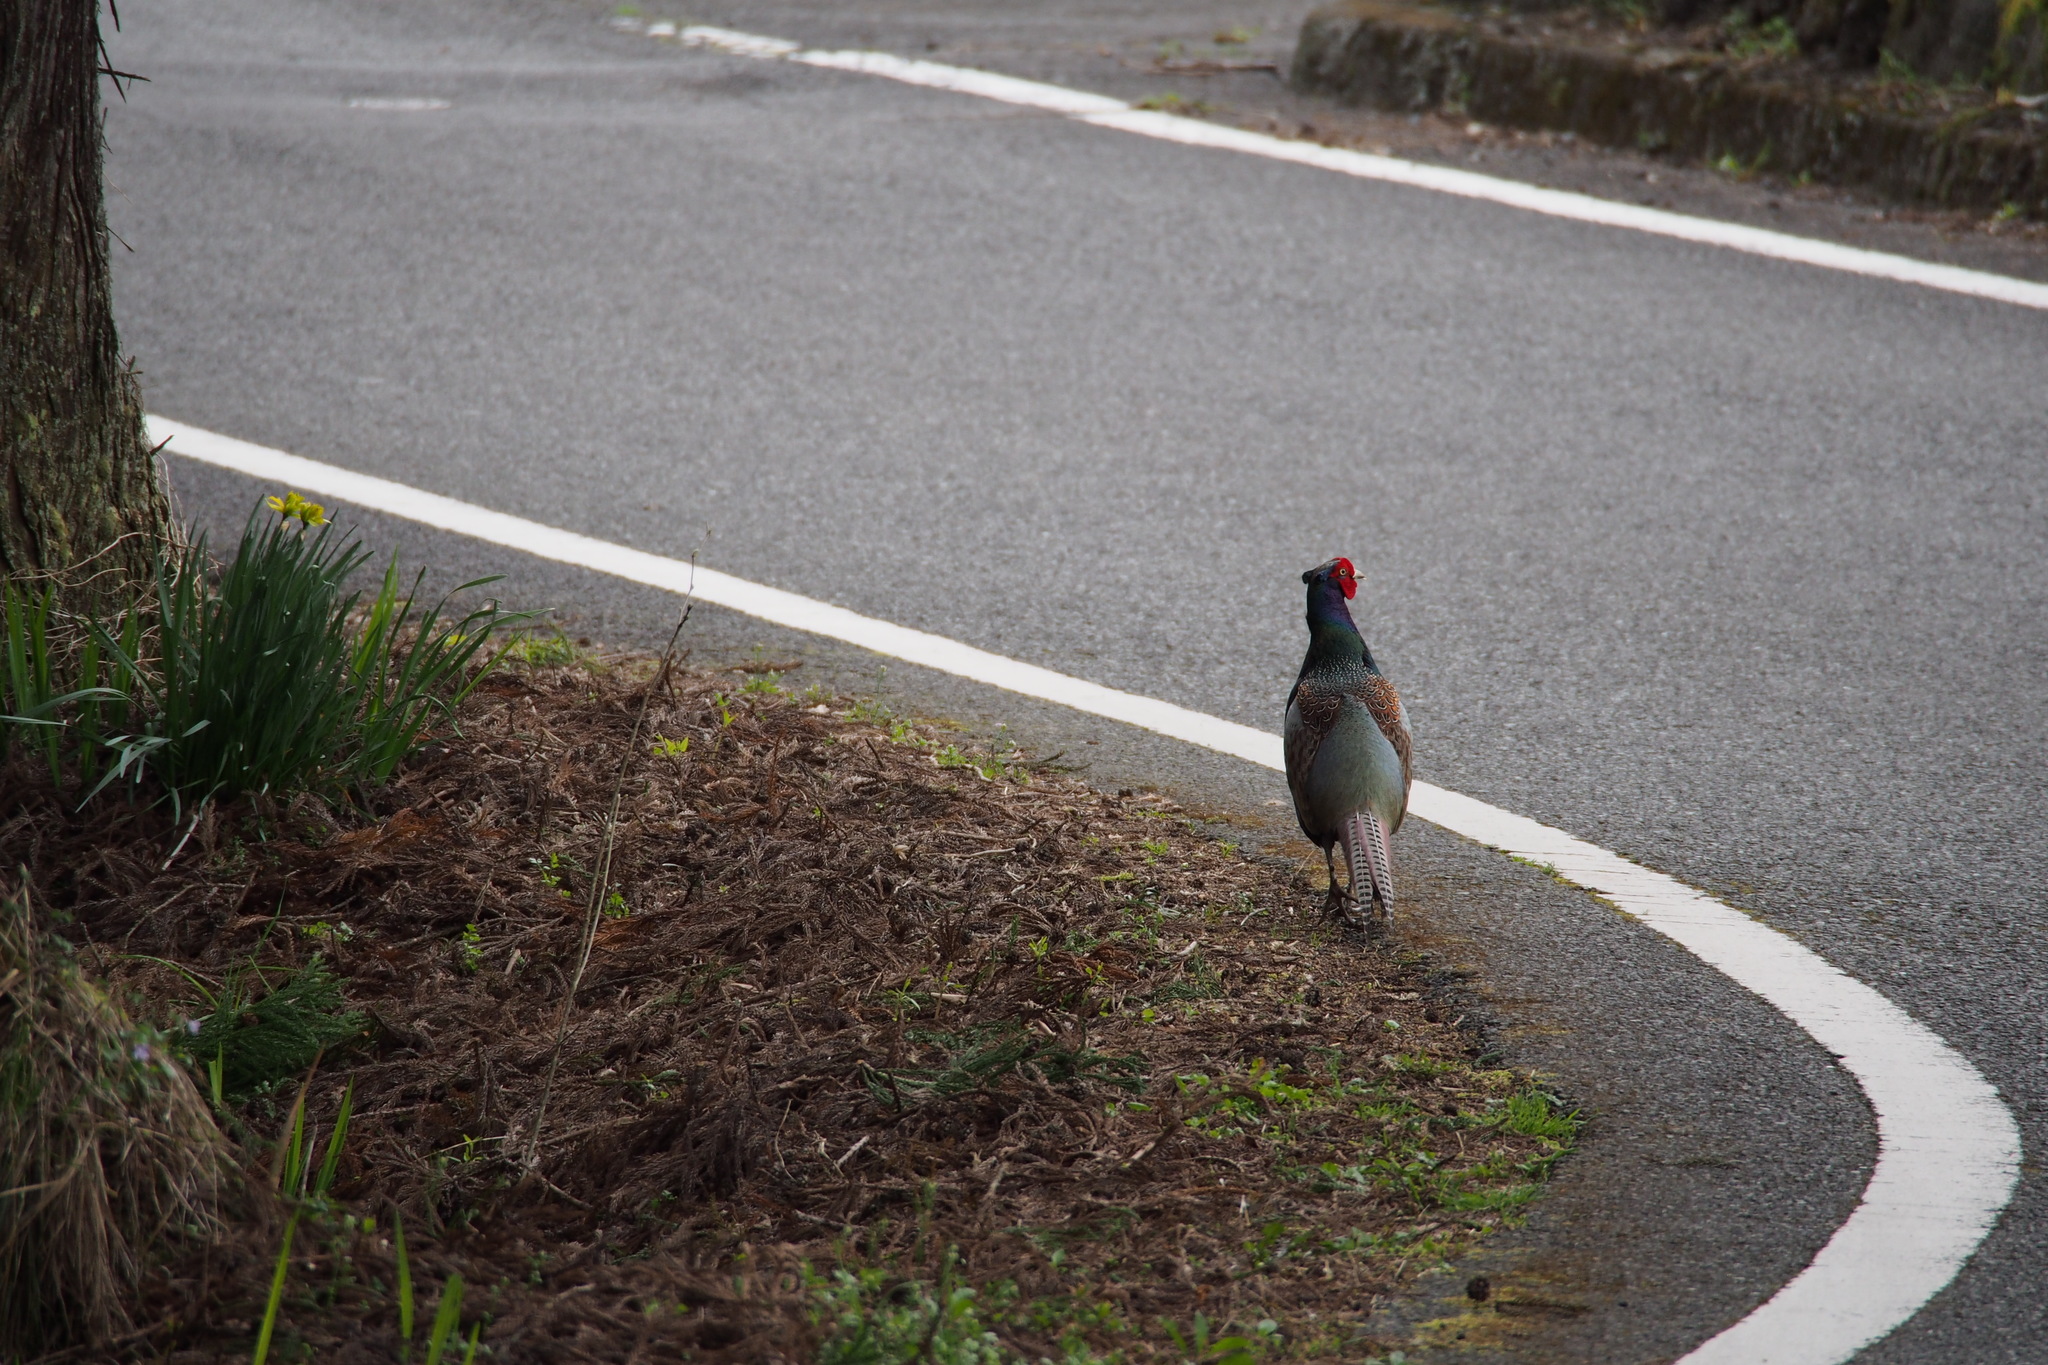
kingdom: Animalia
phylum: Chordata
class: Aves
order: Galliformes
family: Phasianidae
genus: Phasianus
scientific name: Phasianus versicolor
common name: Green pheasant
